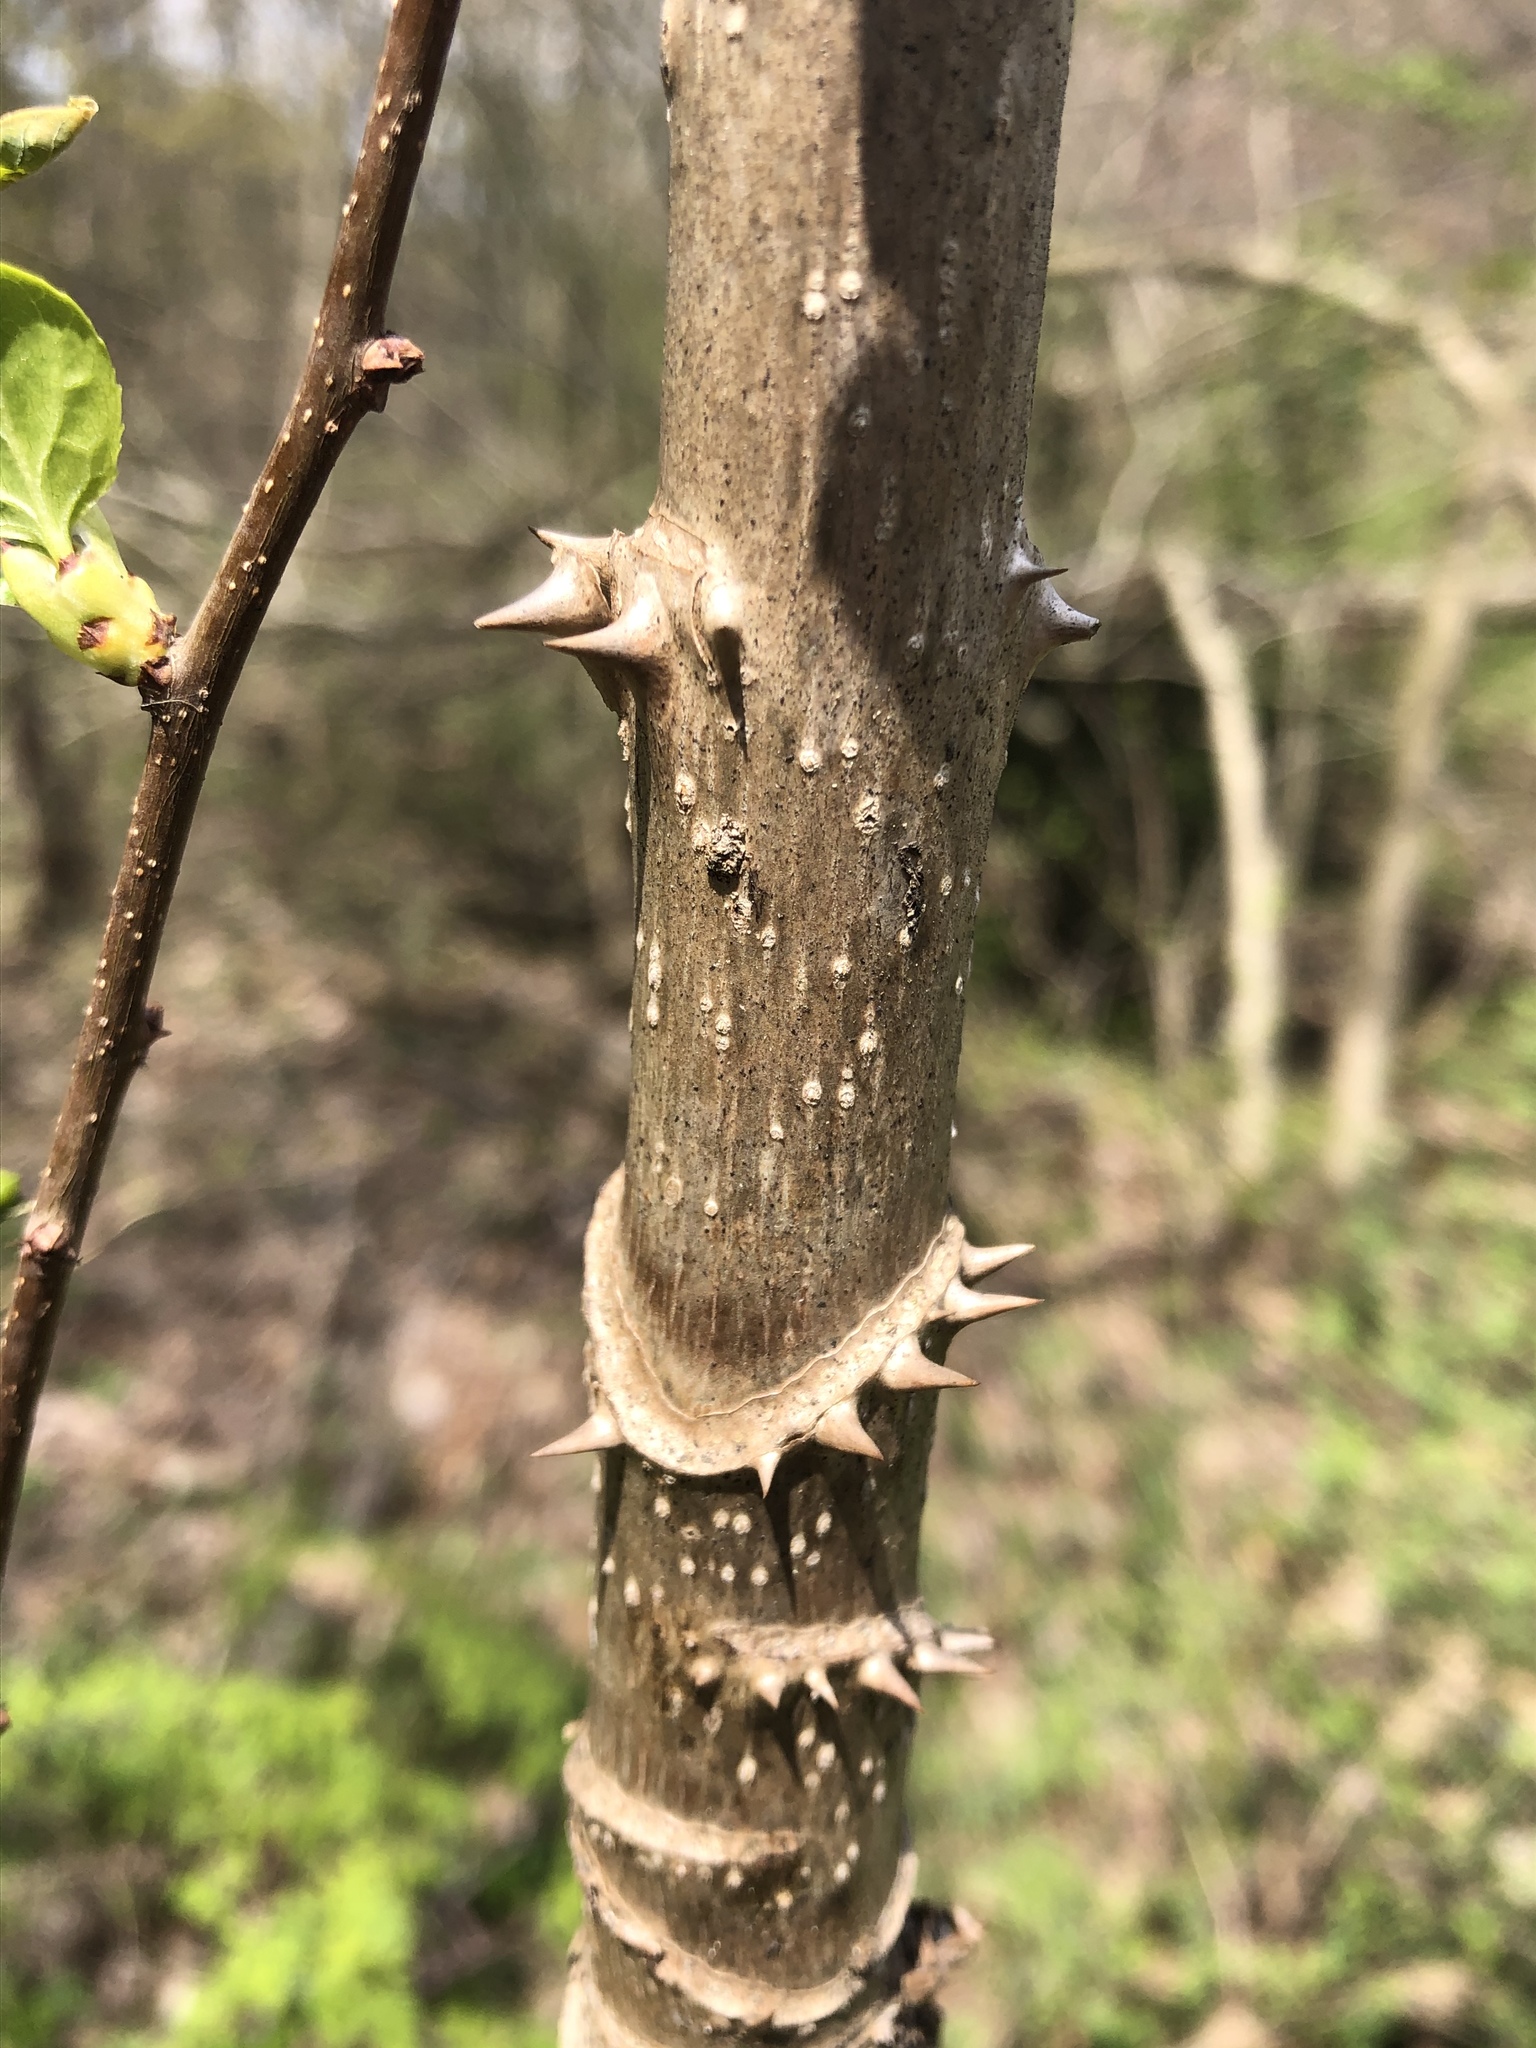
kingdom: Plantae
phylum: Tracheophyta
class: Magnoliopsida
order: Apiales
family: Araliaceae
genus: Aralia
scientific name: Aralia spinosa
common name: Hercules'-club
